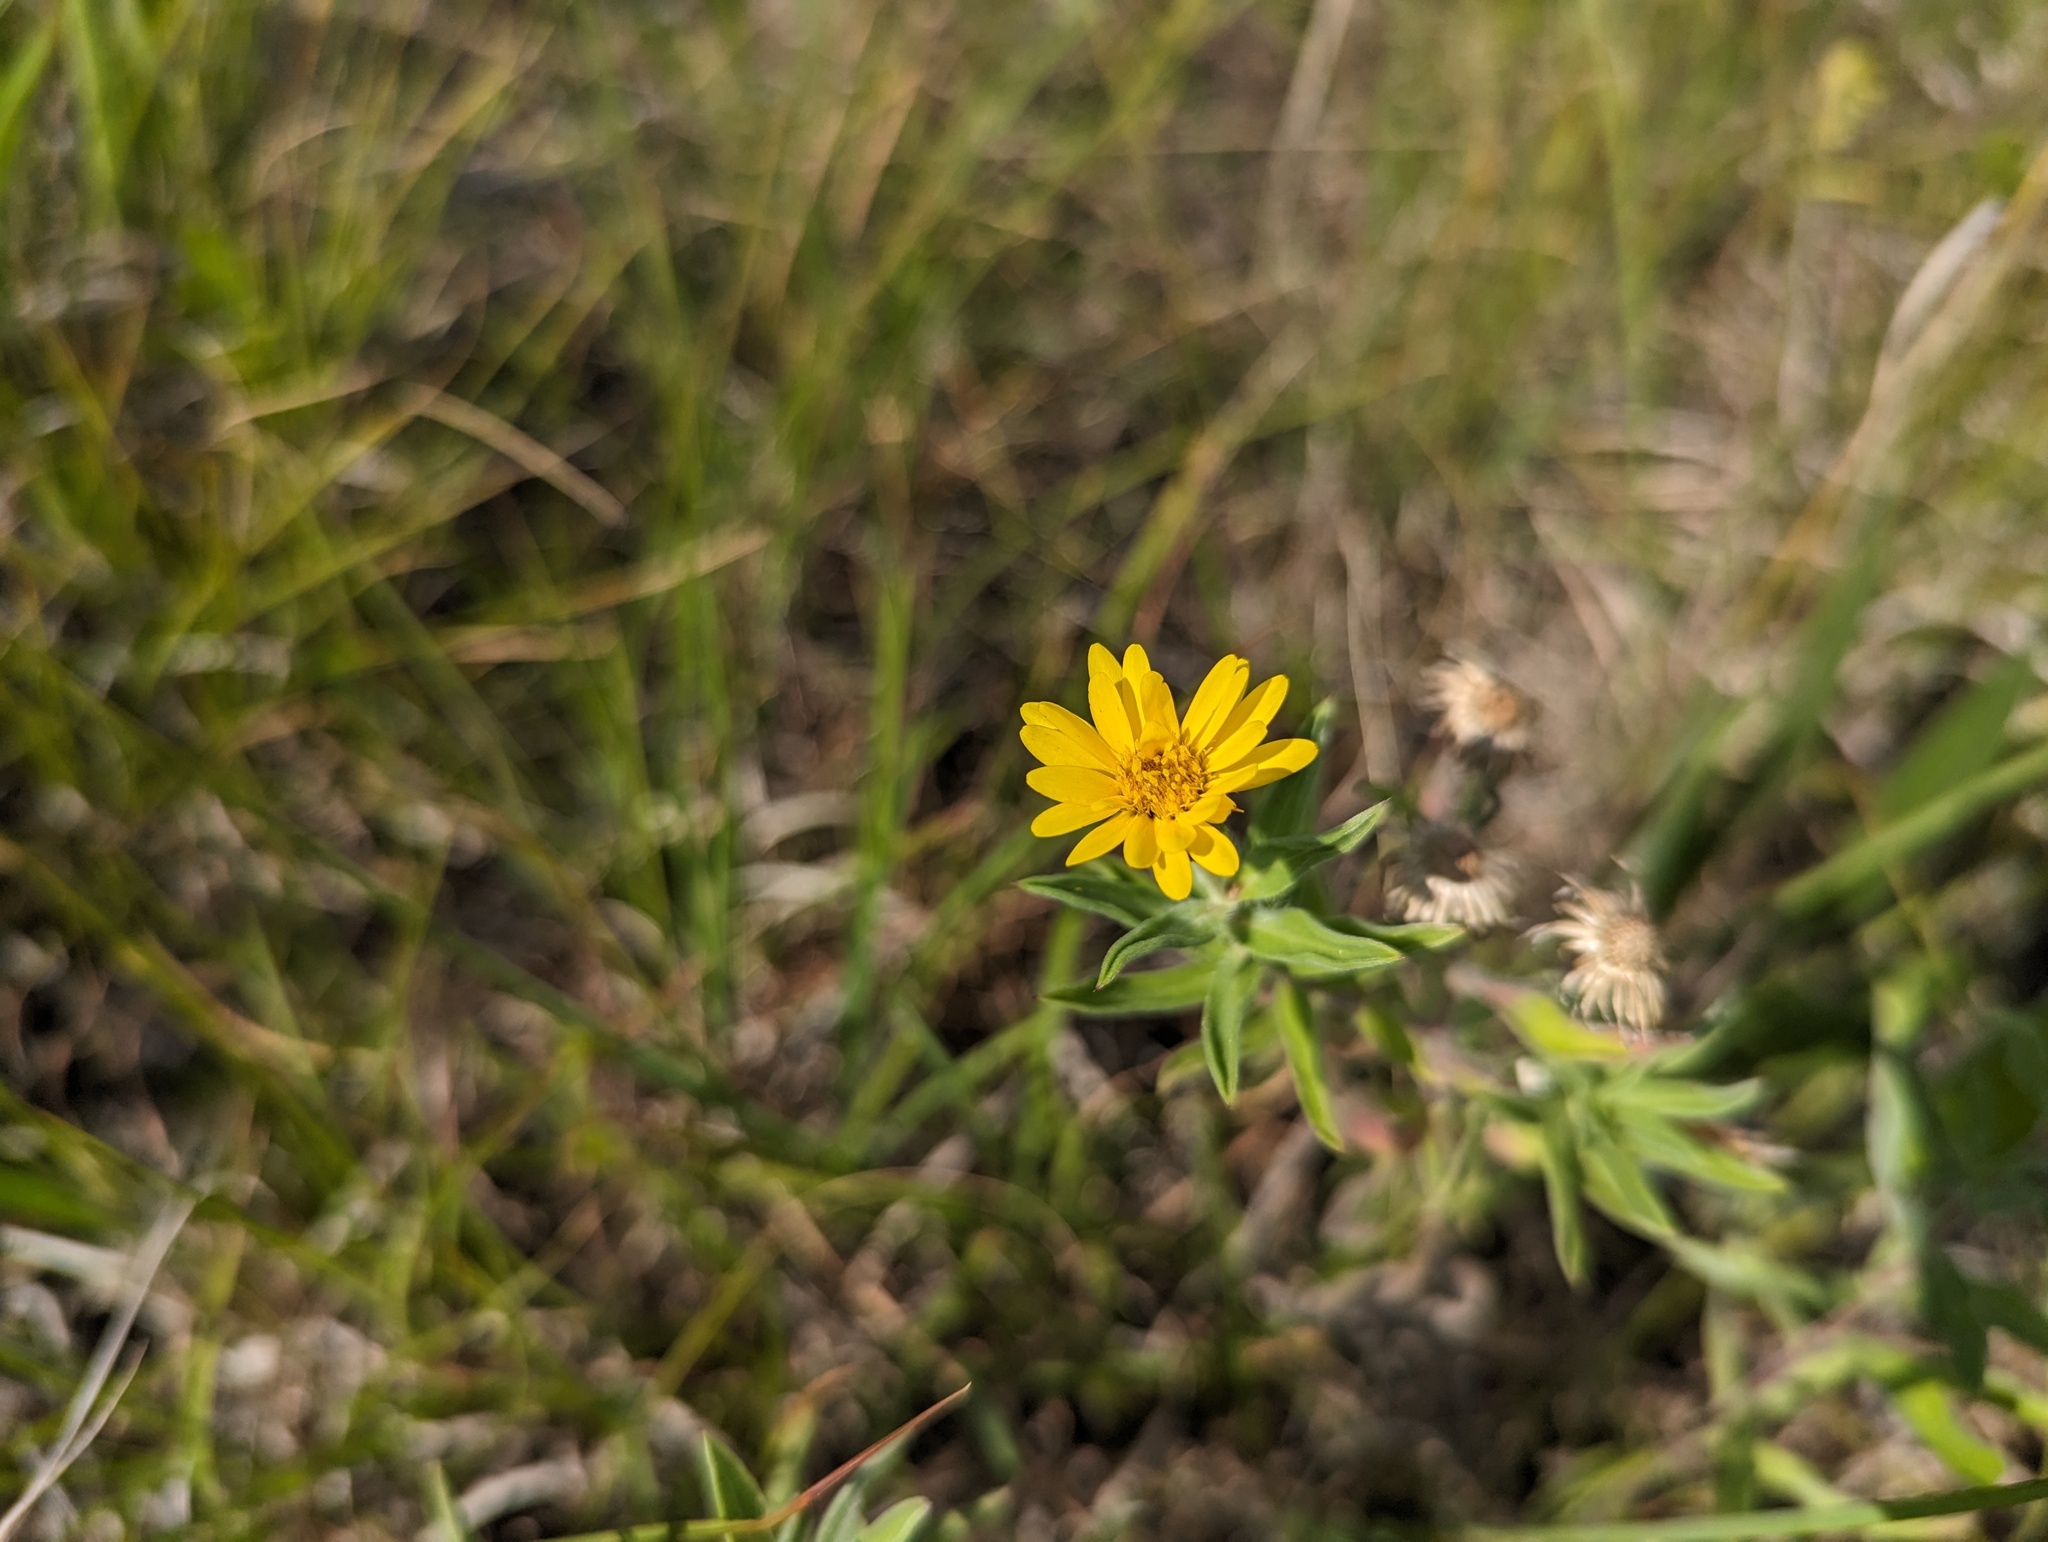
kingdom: Plantae
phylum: Tracheophyta
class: Magnoliopsida
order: Asterales
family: Asteraceae
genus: Heterotheca
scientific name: Heterotheca camporum
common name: Prairie golden-aster
